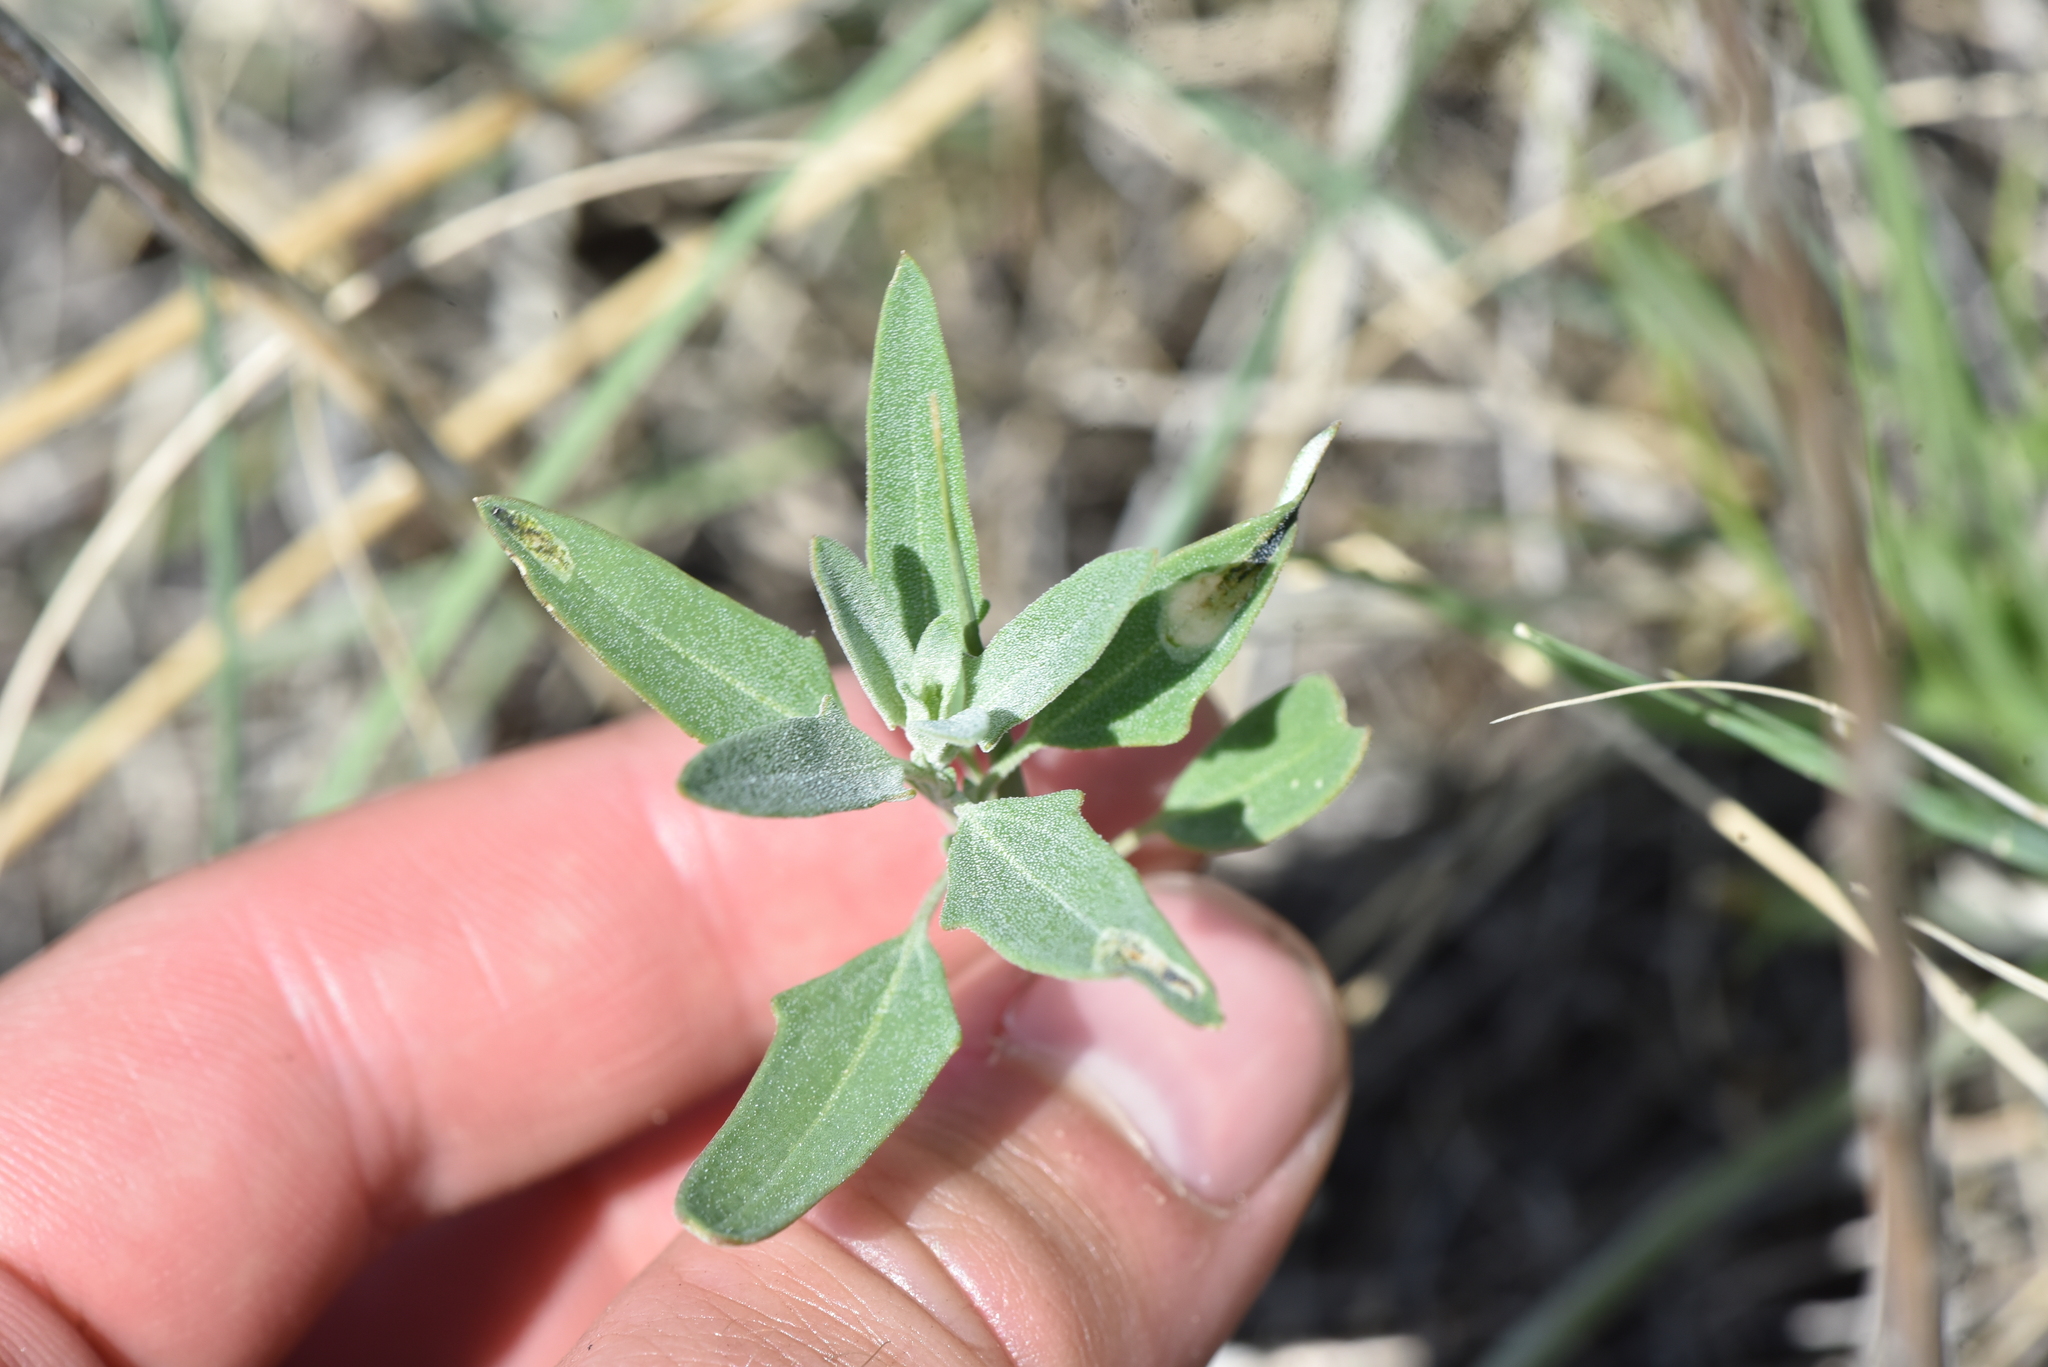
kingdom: Plantae
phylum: Tracheophyta
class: Magnoliopsida
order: Caryophyllales
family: Amaranthaceae
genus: Chenopodium
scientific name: Chenopodium album
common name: Fat-hen
